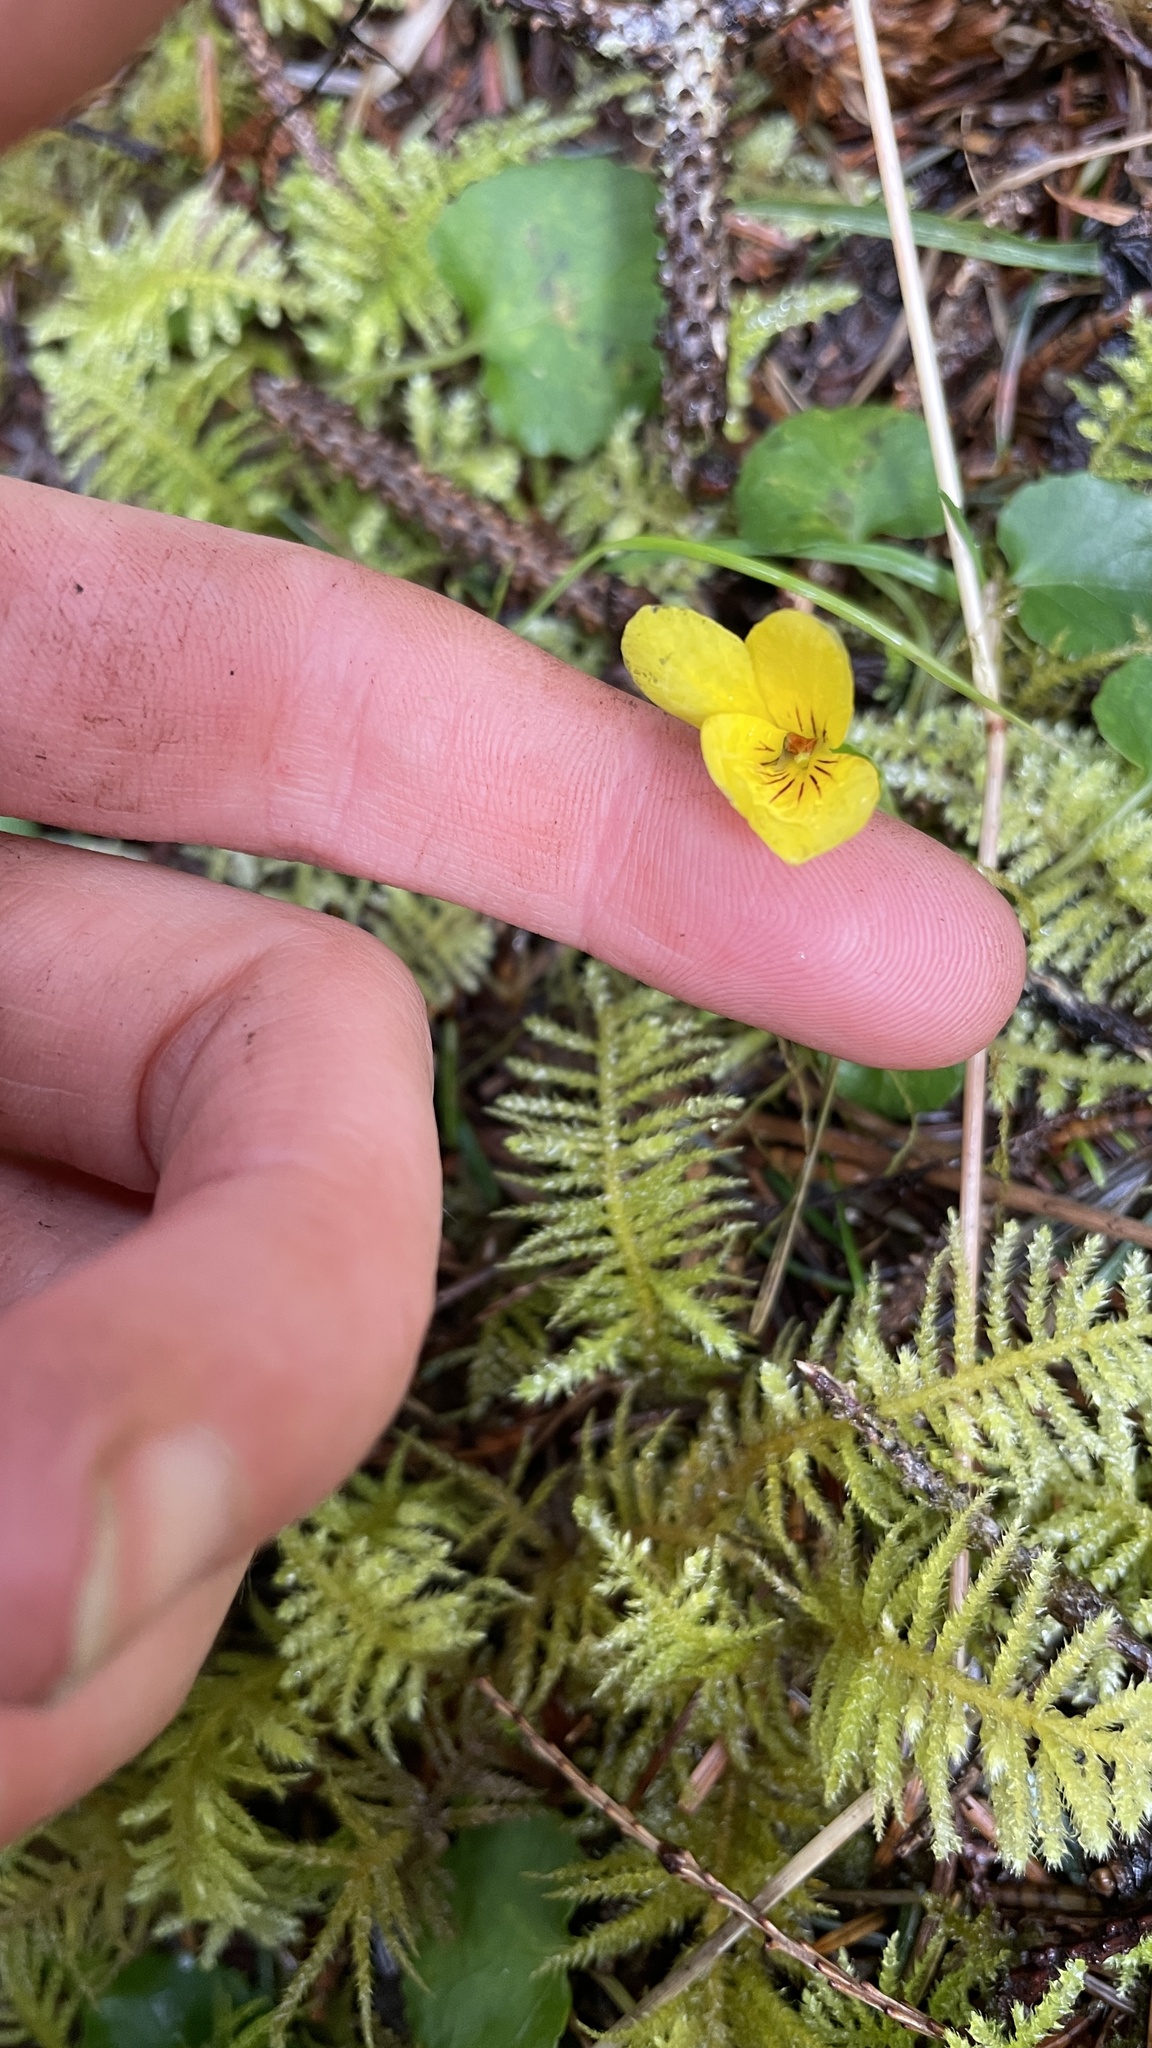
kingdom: Plantae
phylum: Tracheophyta
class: Magnoliopsida
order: Malpighiales
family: Violaceae
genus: Viola
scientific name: Viola sempervirens
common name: Evergreen violet
